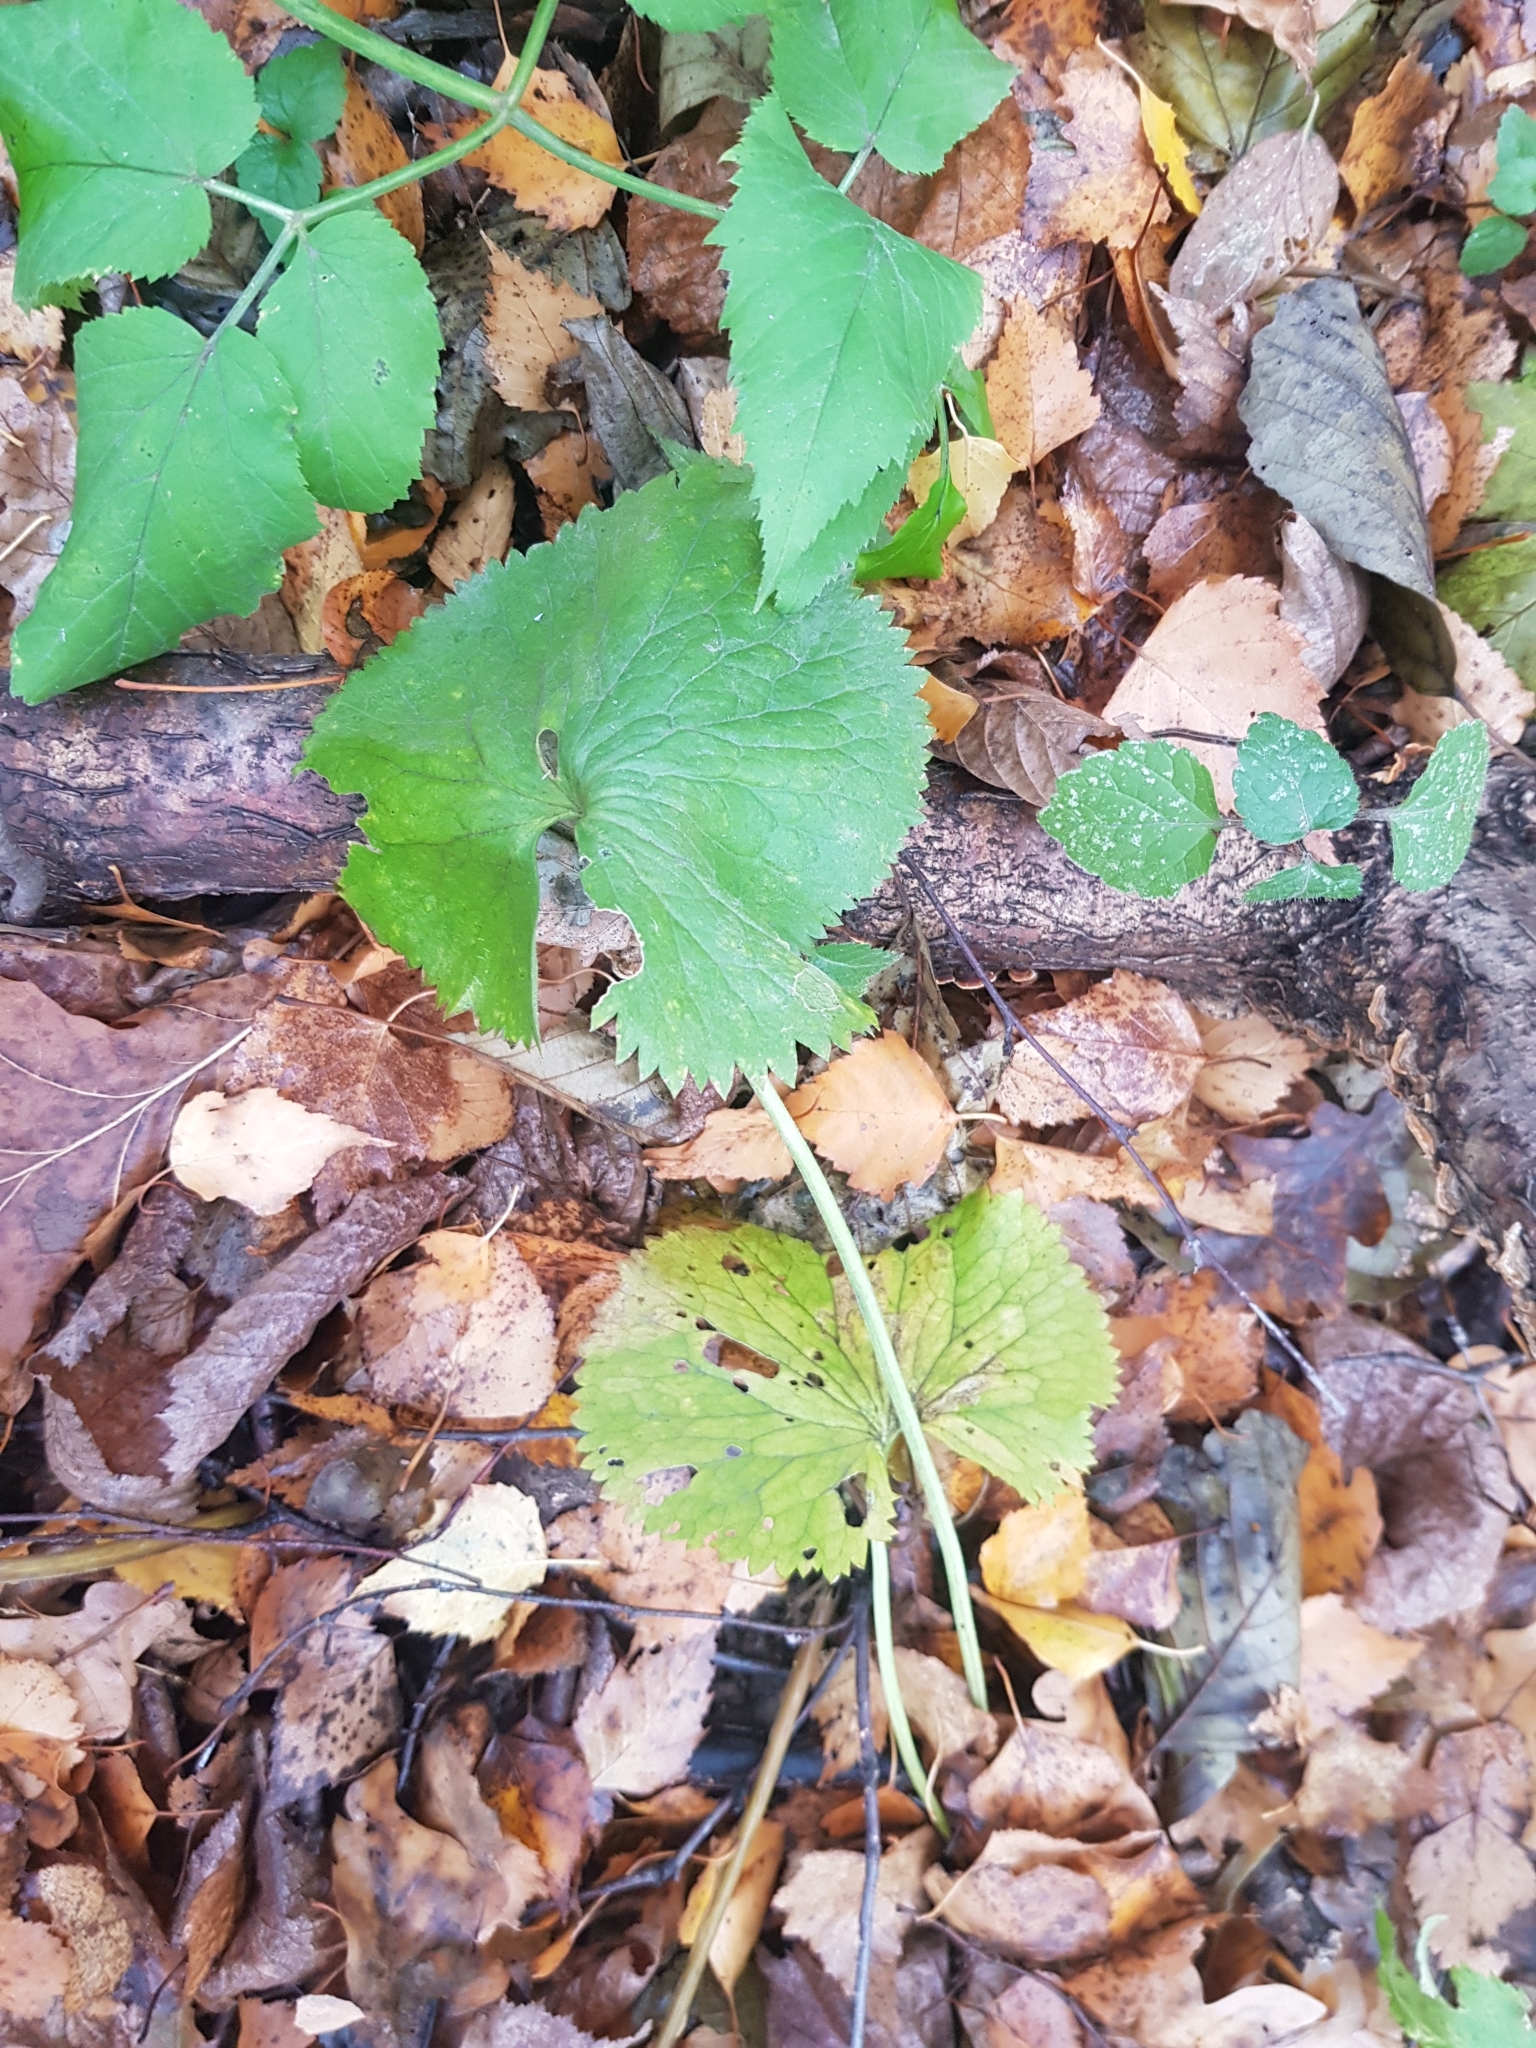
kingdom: Plantae
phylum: Tracheophyta
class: Magnoliopsida
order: Ranunculales
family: Ranunculaceae
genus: Ranunculus
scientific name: Ranunculus cassubicus
